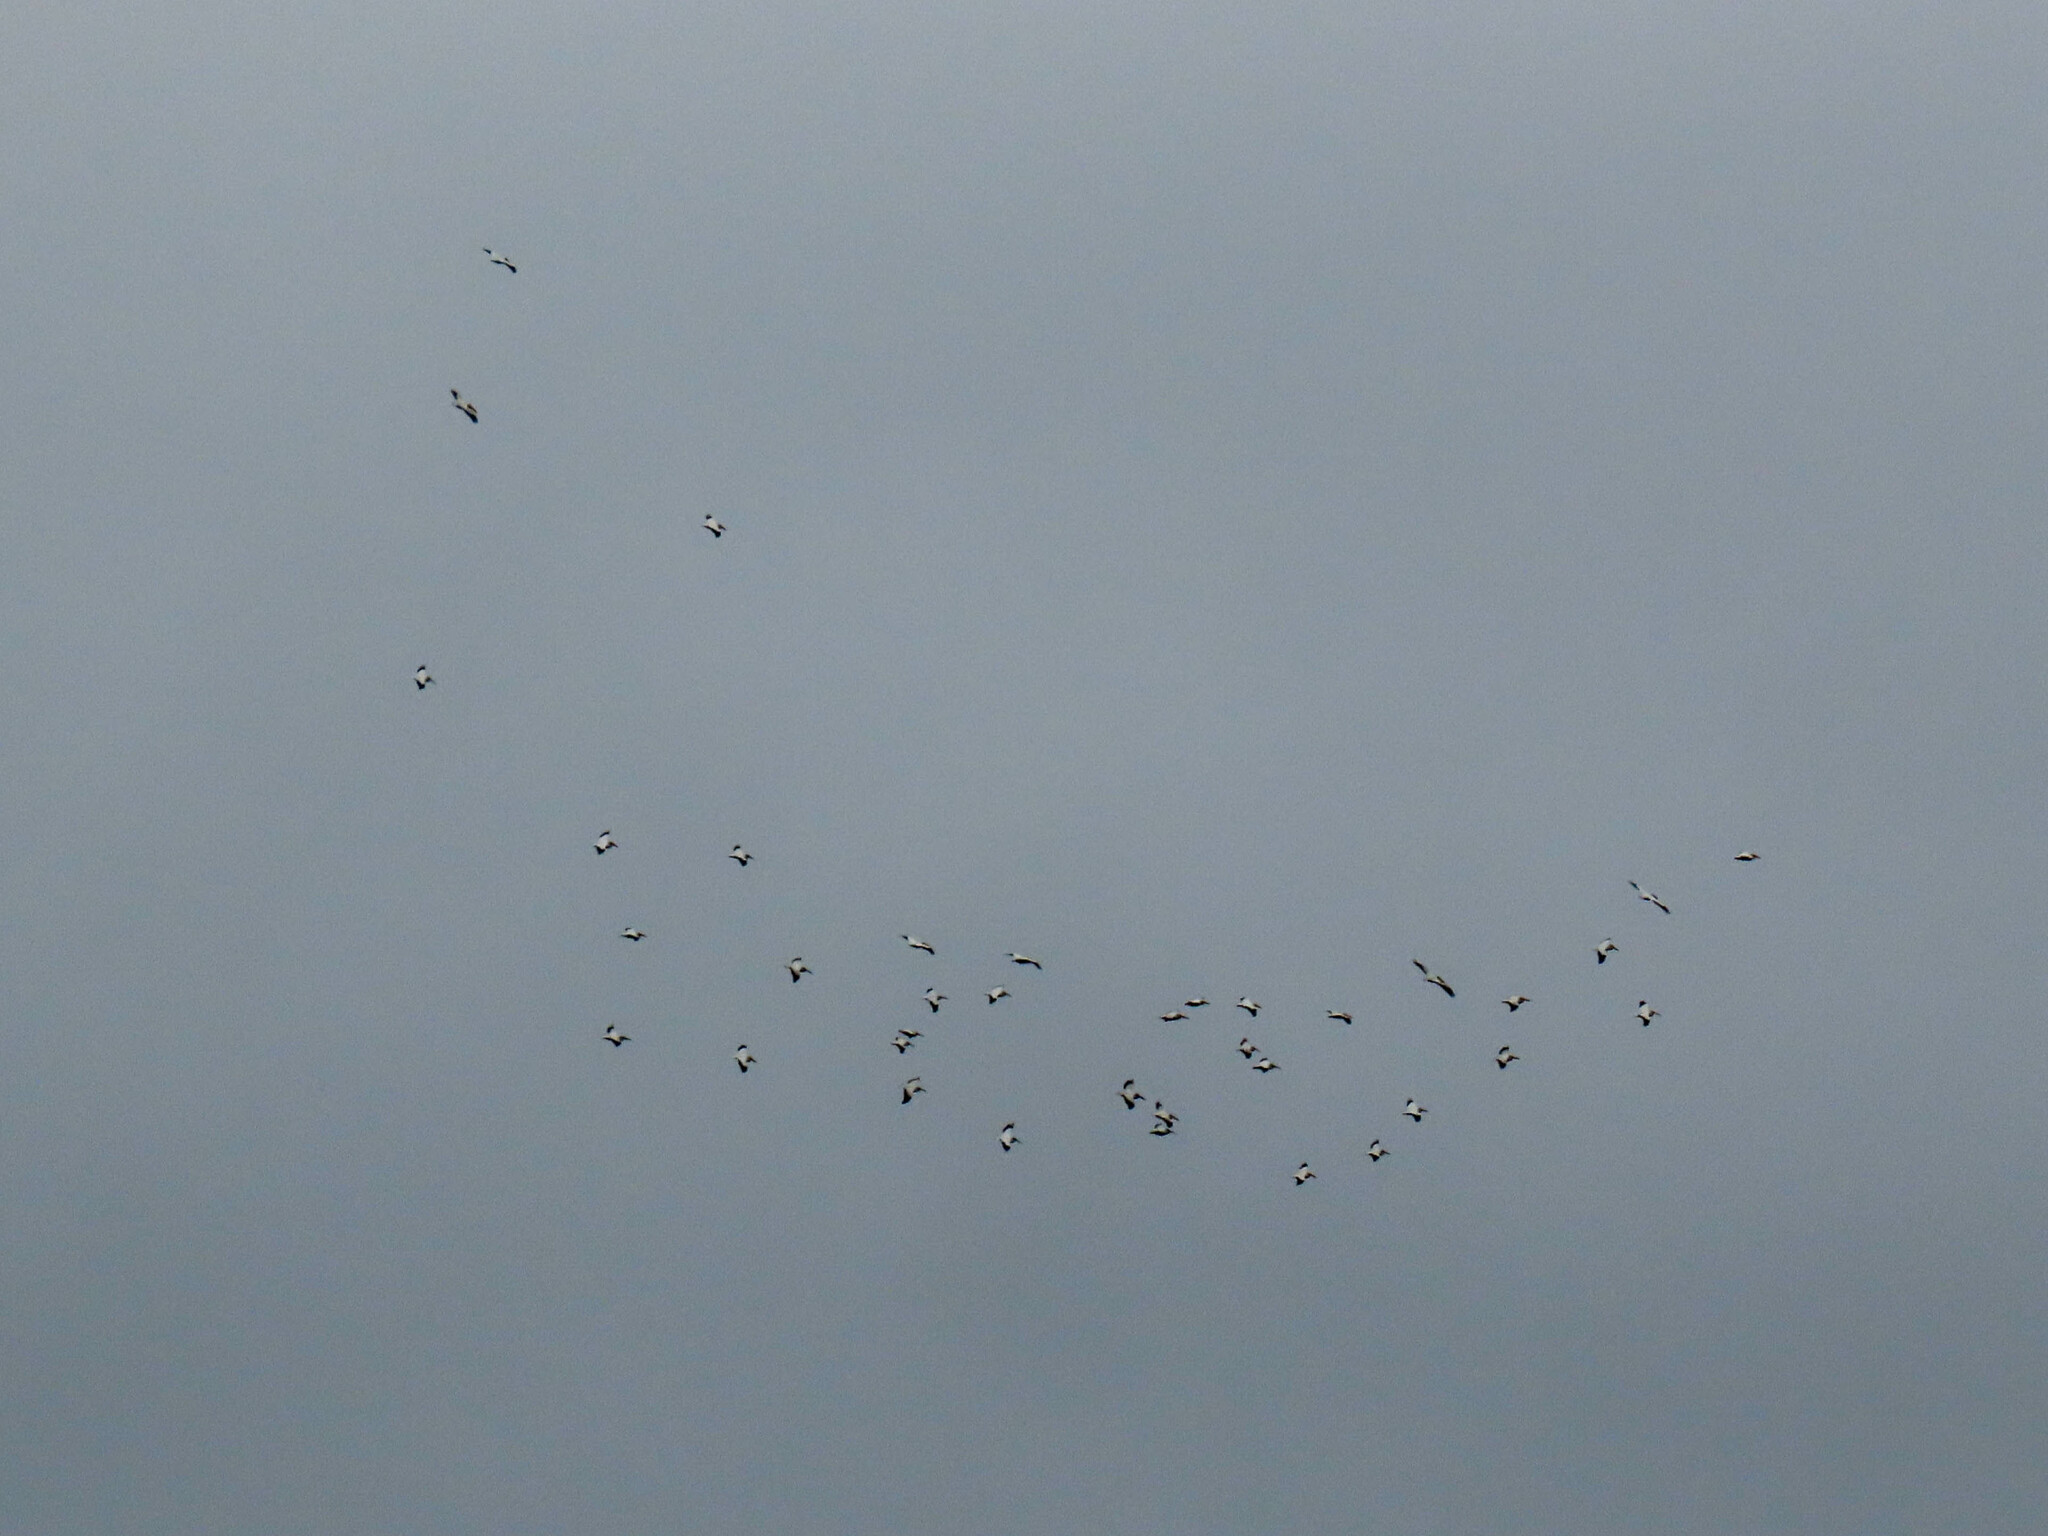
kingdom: Animalia
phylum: Chordata
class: Aves
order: Pelecaniformes
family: Pelecanidae
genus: Pelecanus
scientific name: Pelecanus erythrorhynchos
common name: American white pelican
